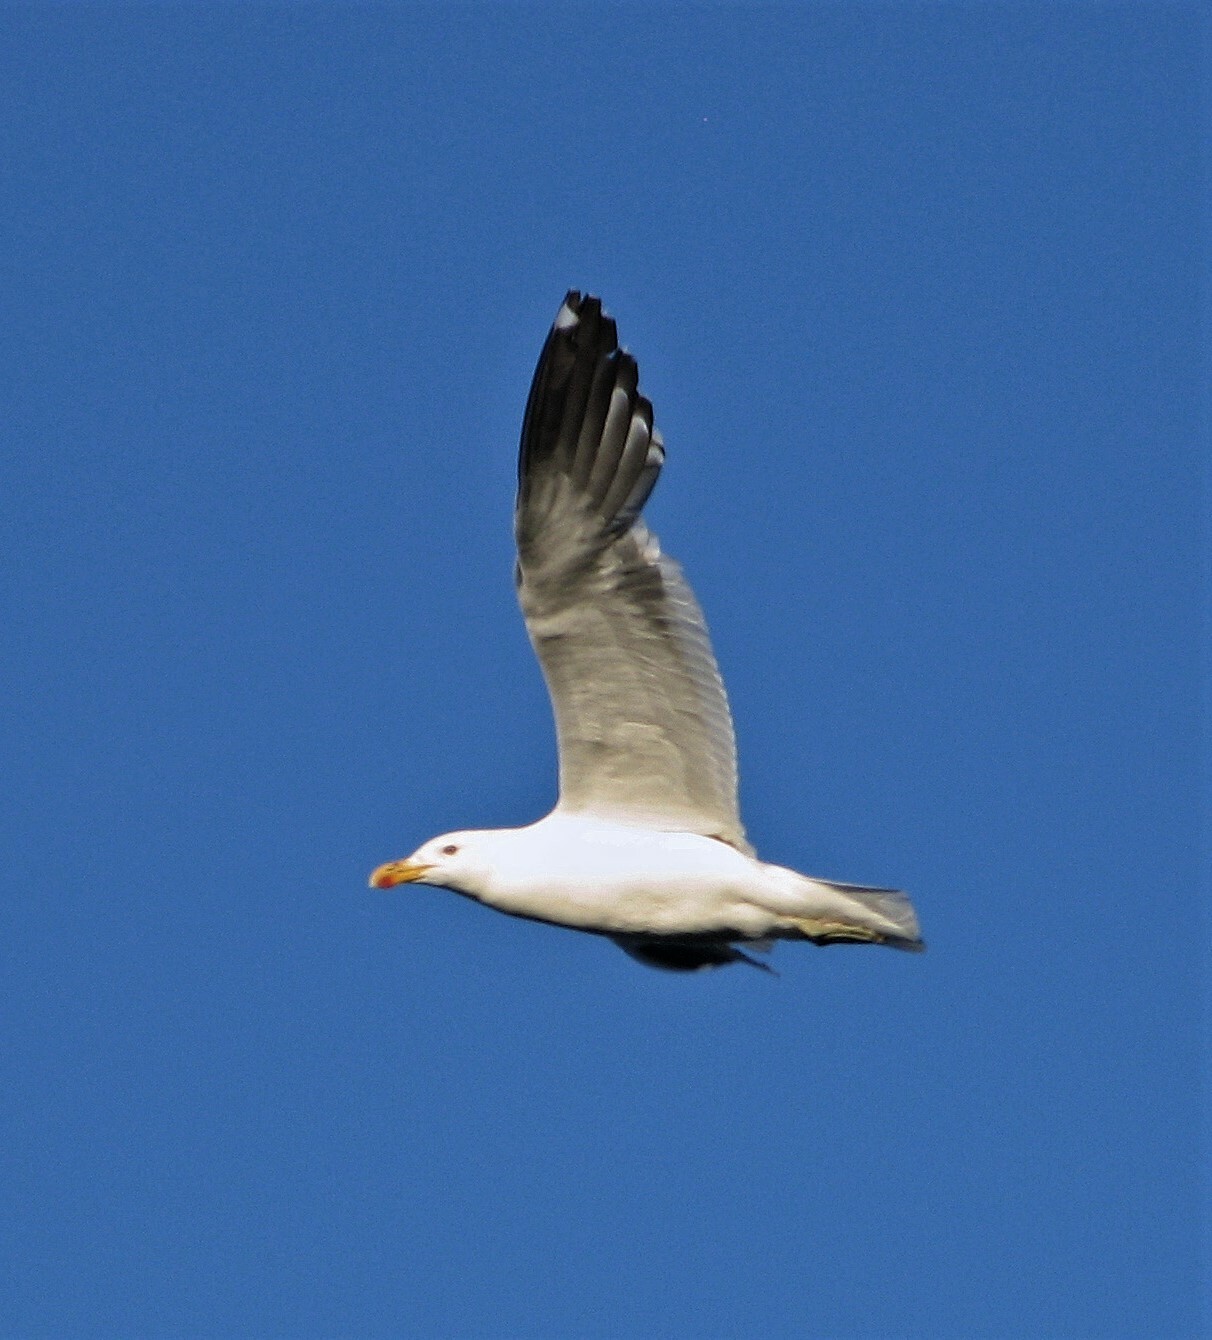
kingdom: Animalia
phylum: Chordata
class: Aves
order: Charadriiformes
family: Laridae
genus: Larus
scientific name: Larus dominicanus
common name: Kelp gull
